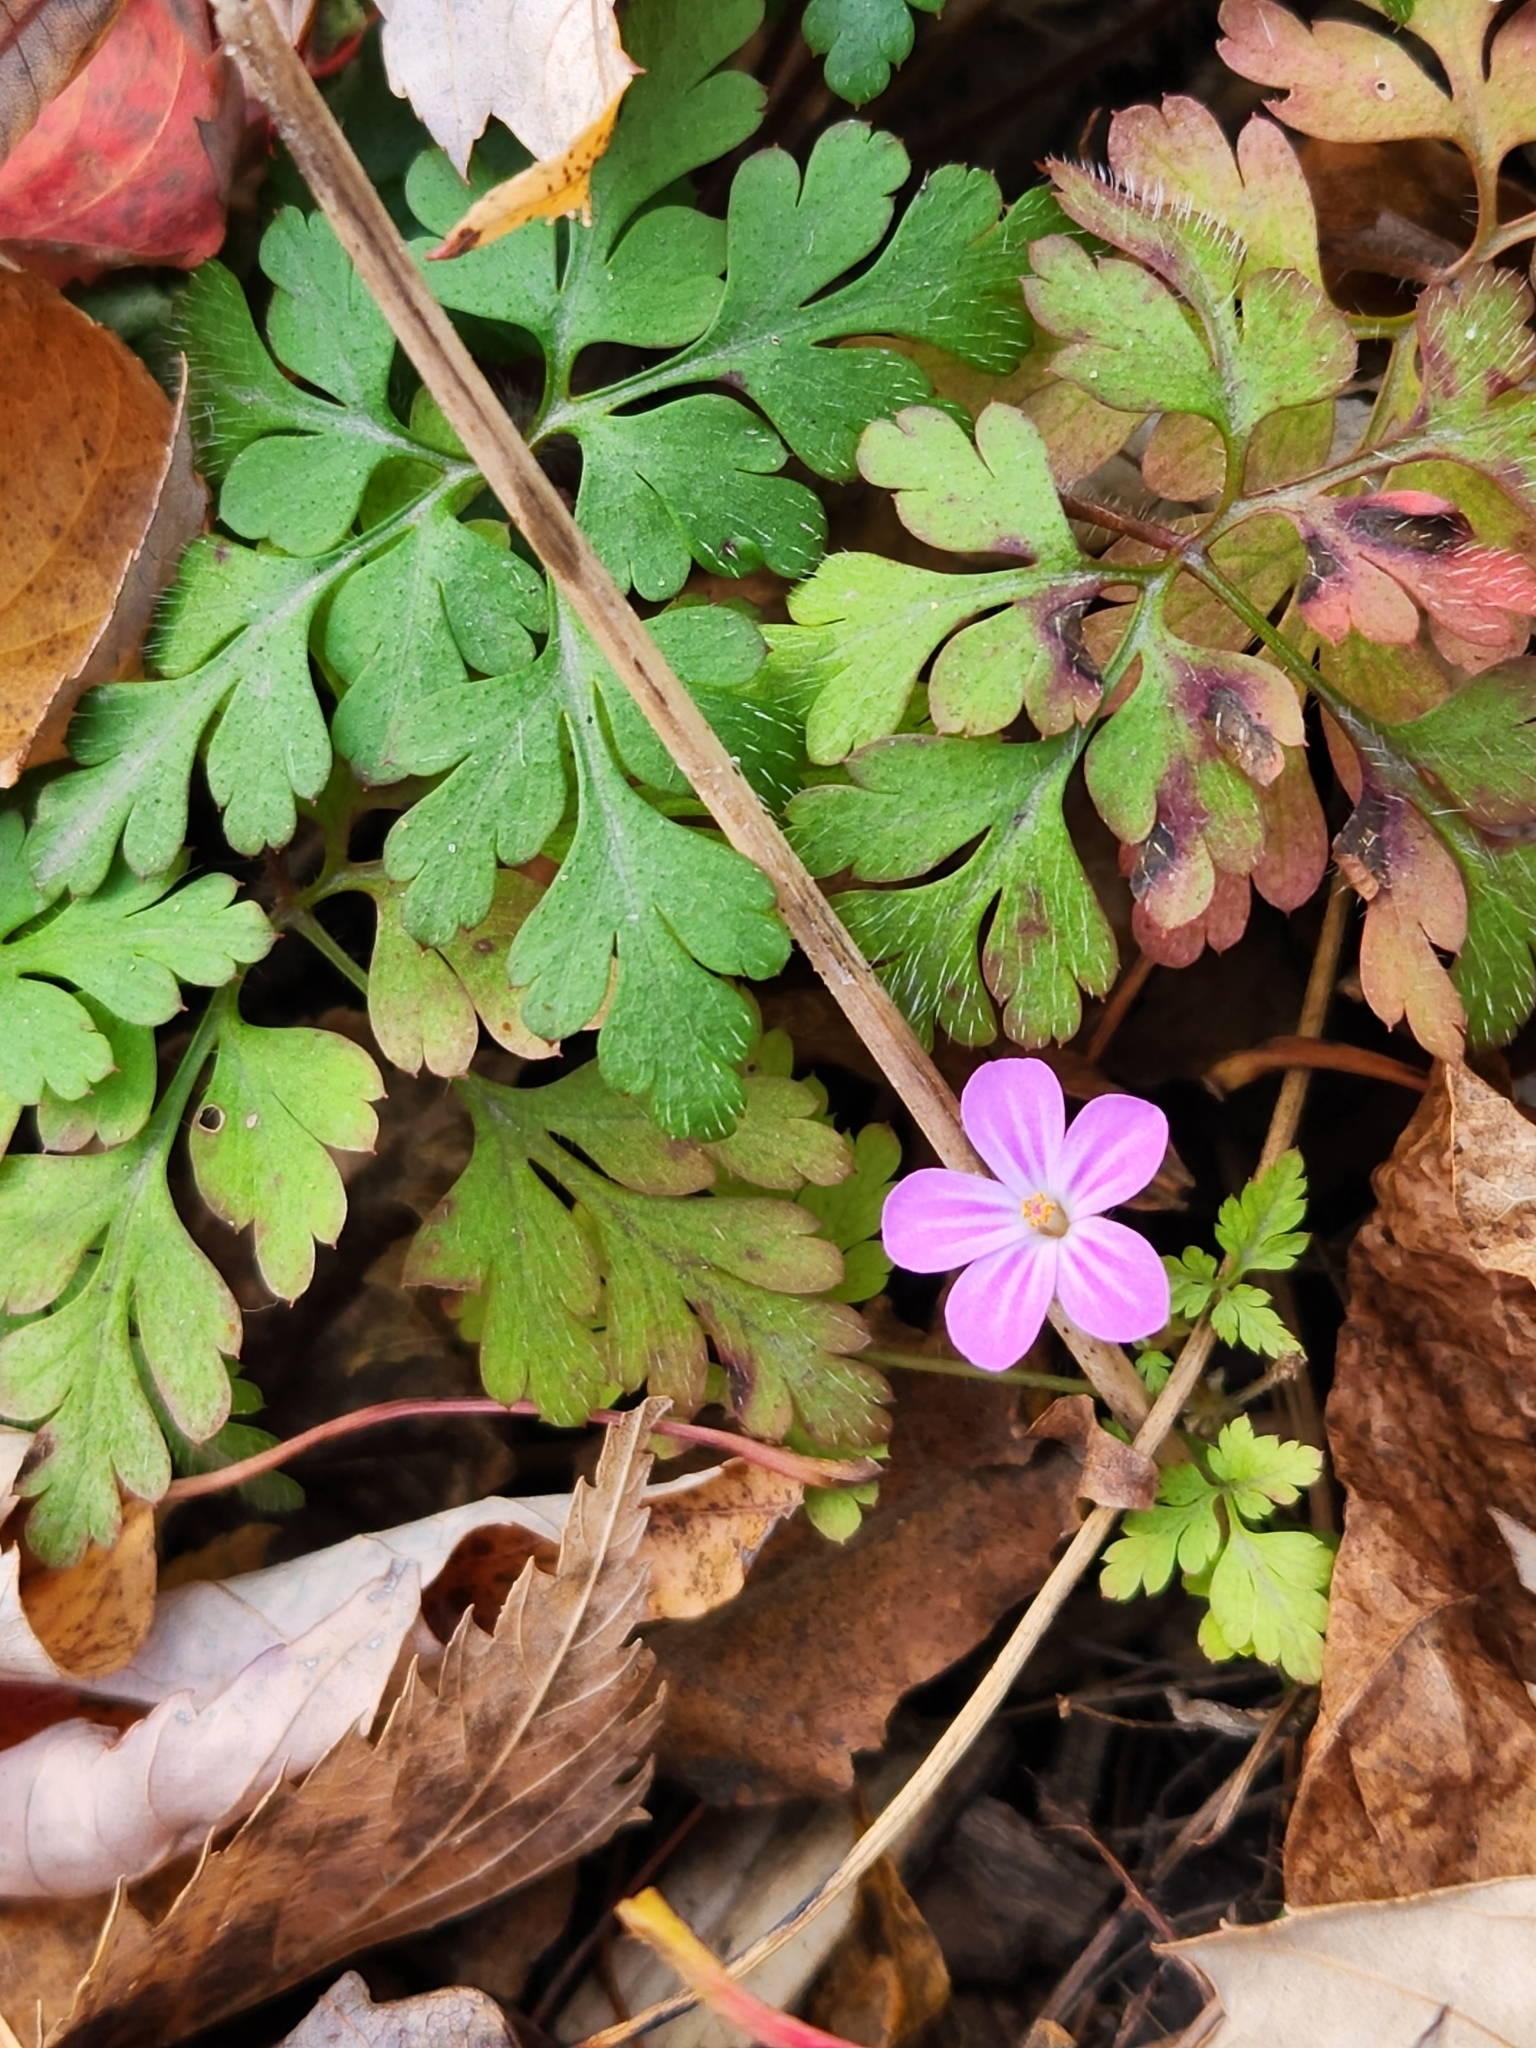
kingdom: Plantae
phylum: Tracheophyta
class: Magnoliopsida
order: Geraniales
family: Geraniaceae
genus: Geranium
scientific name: Geranium robertianum
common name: Herb-robert
